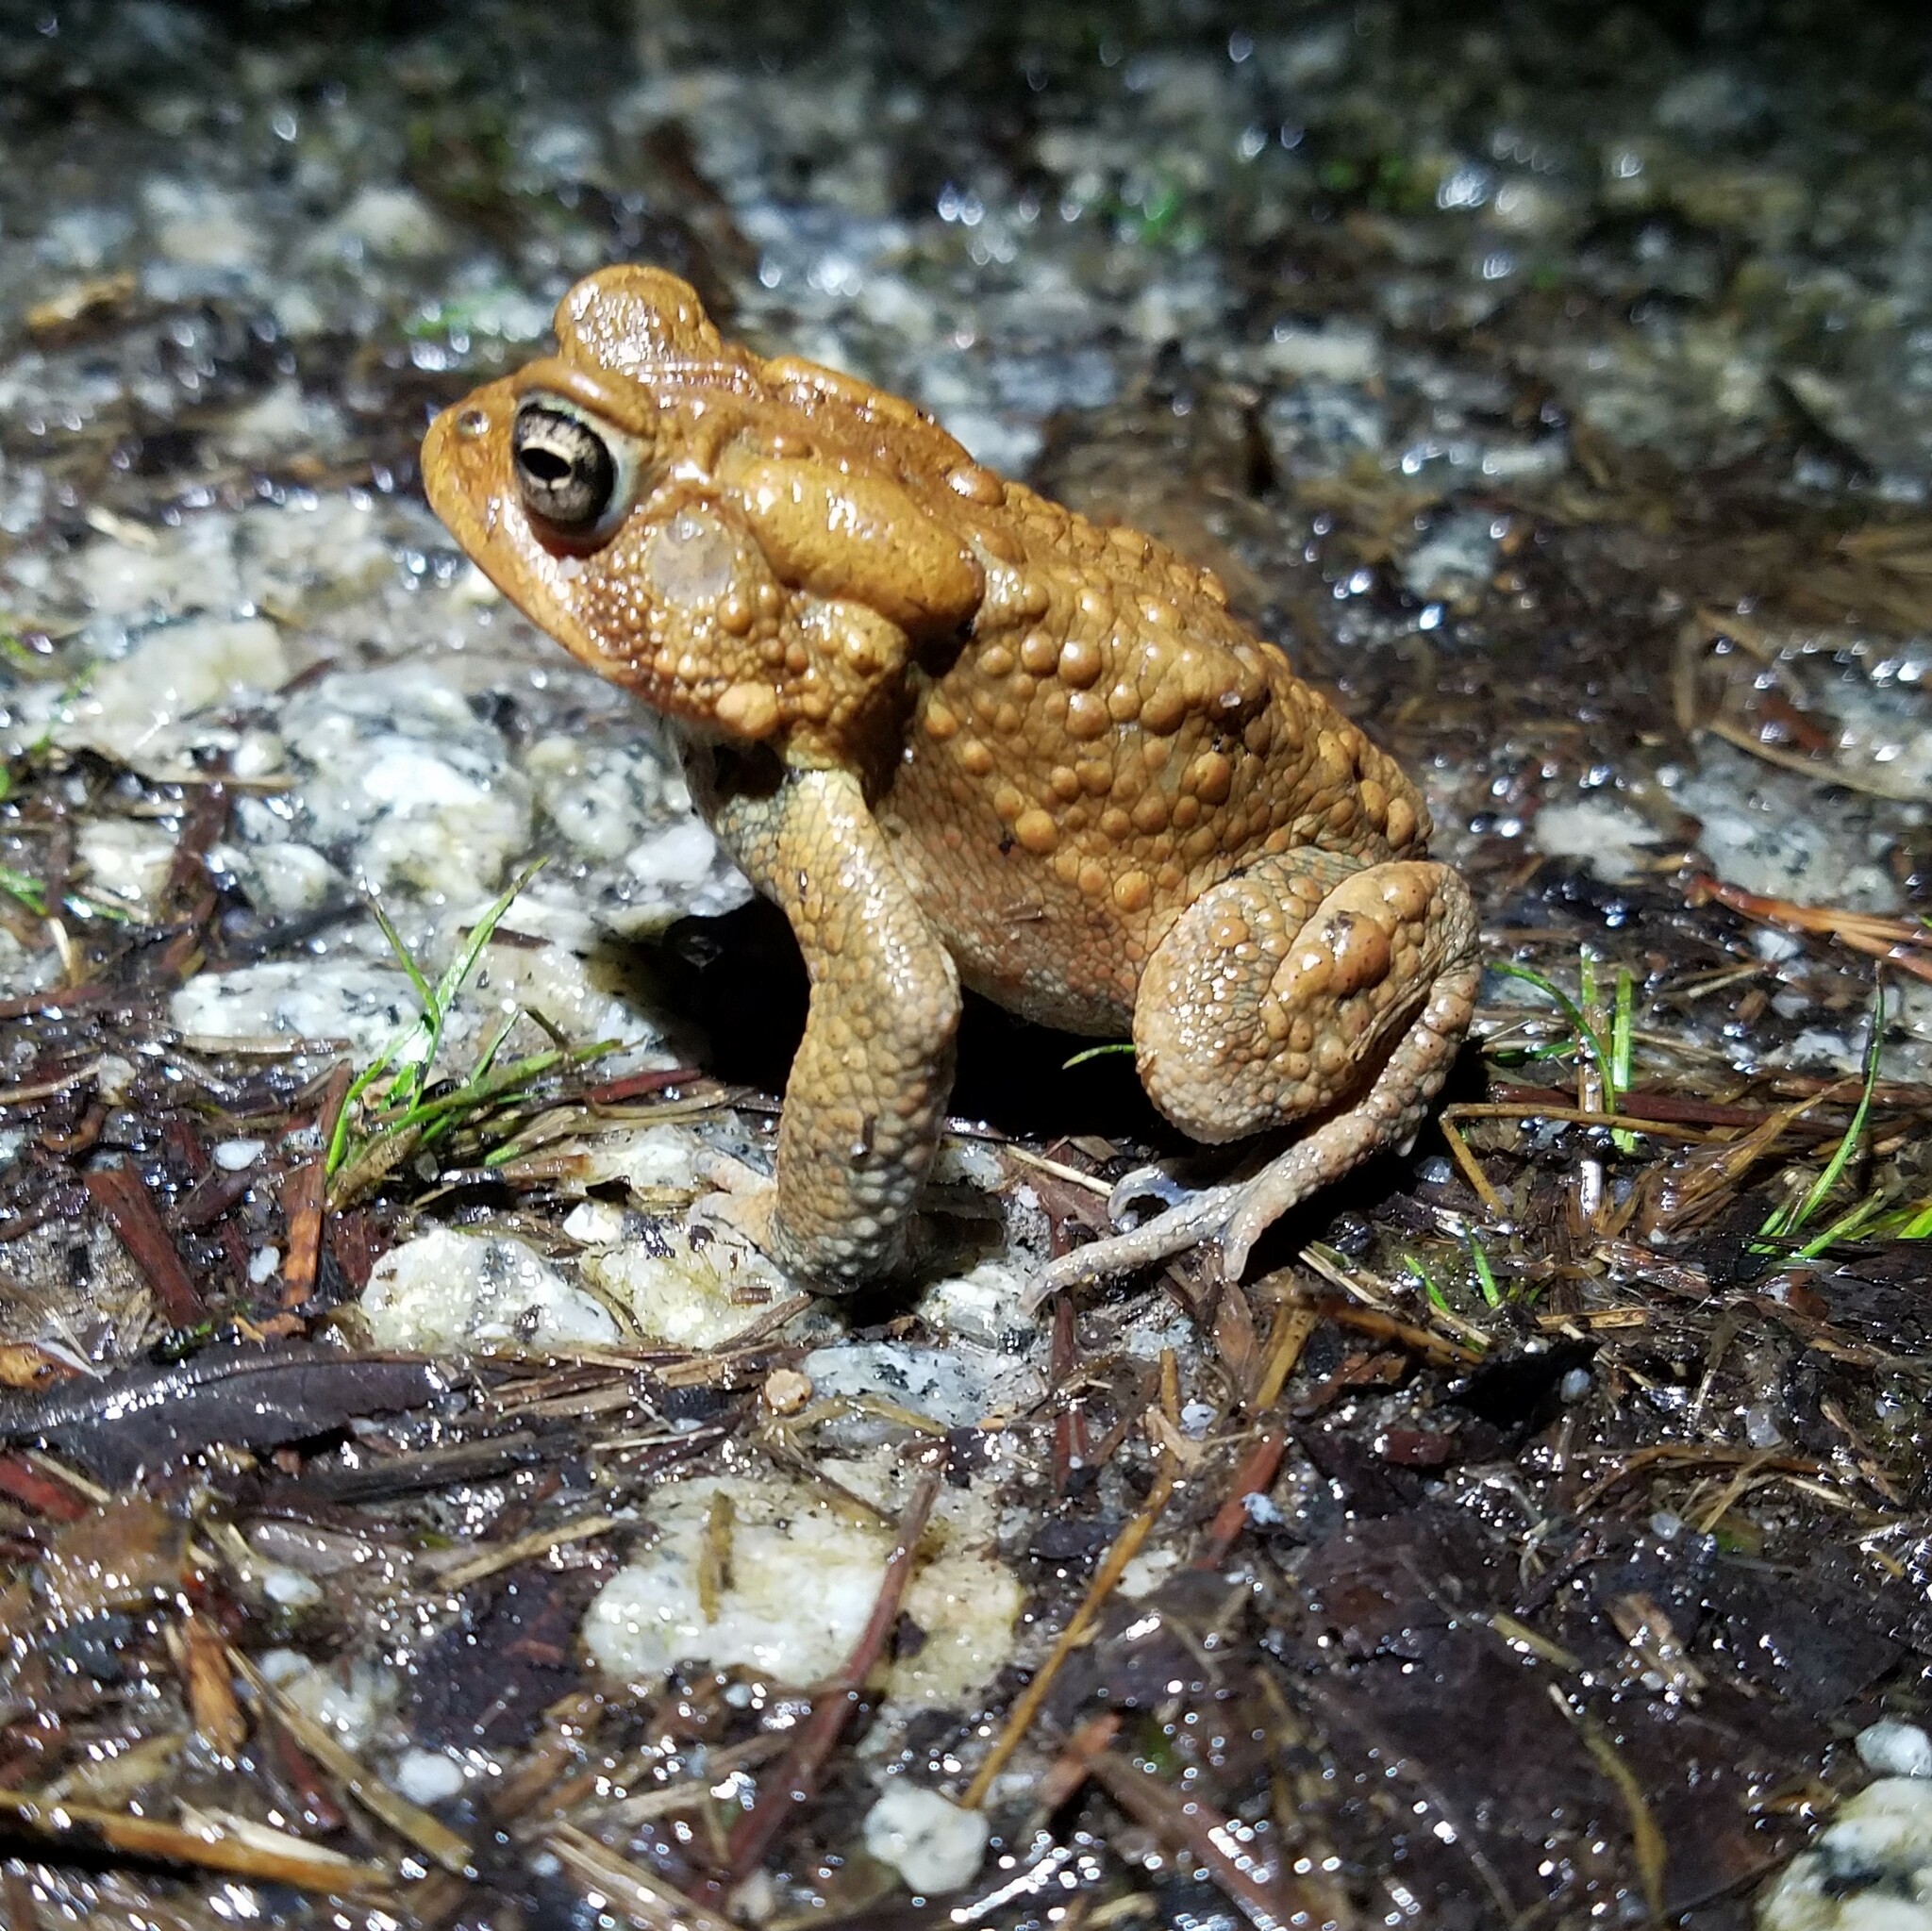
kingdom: Animalia
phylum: Chordata
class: Amphibia
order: Anura
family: Bufonidae
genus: Anaxyrus
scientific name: Anaxyrus americanus
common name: American toad
